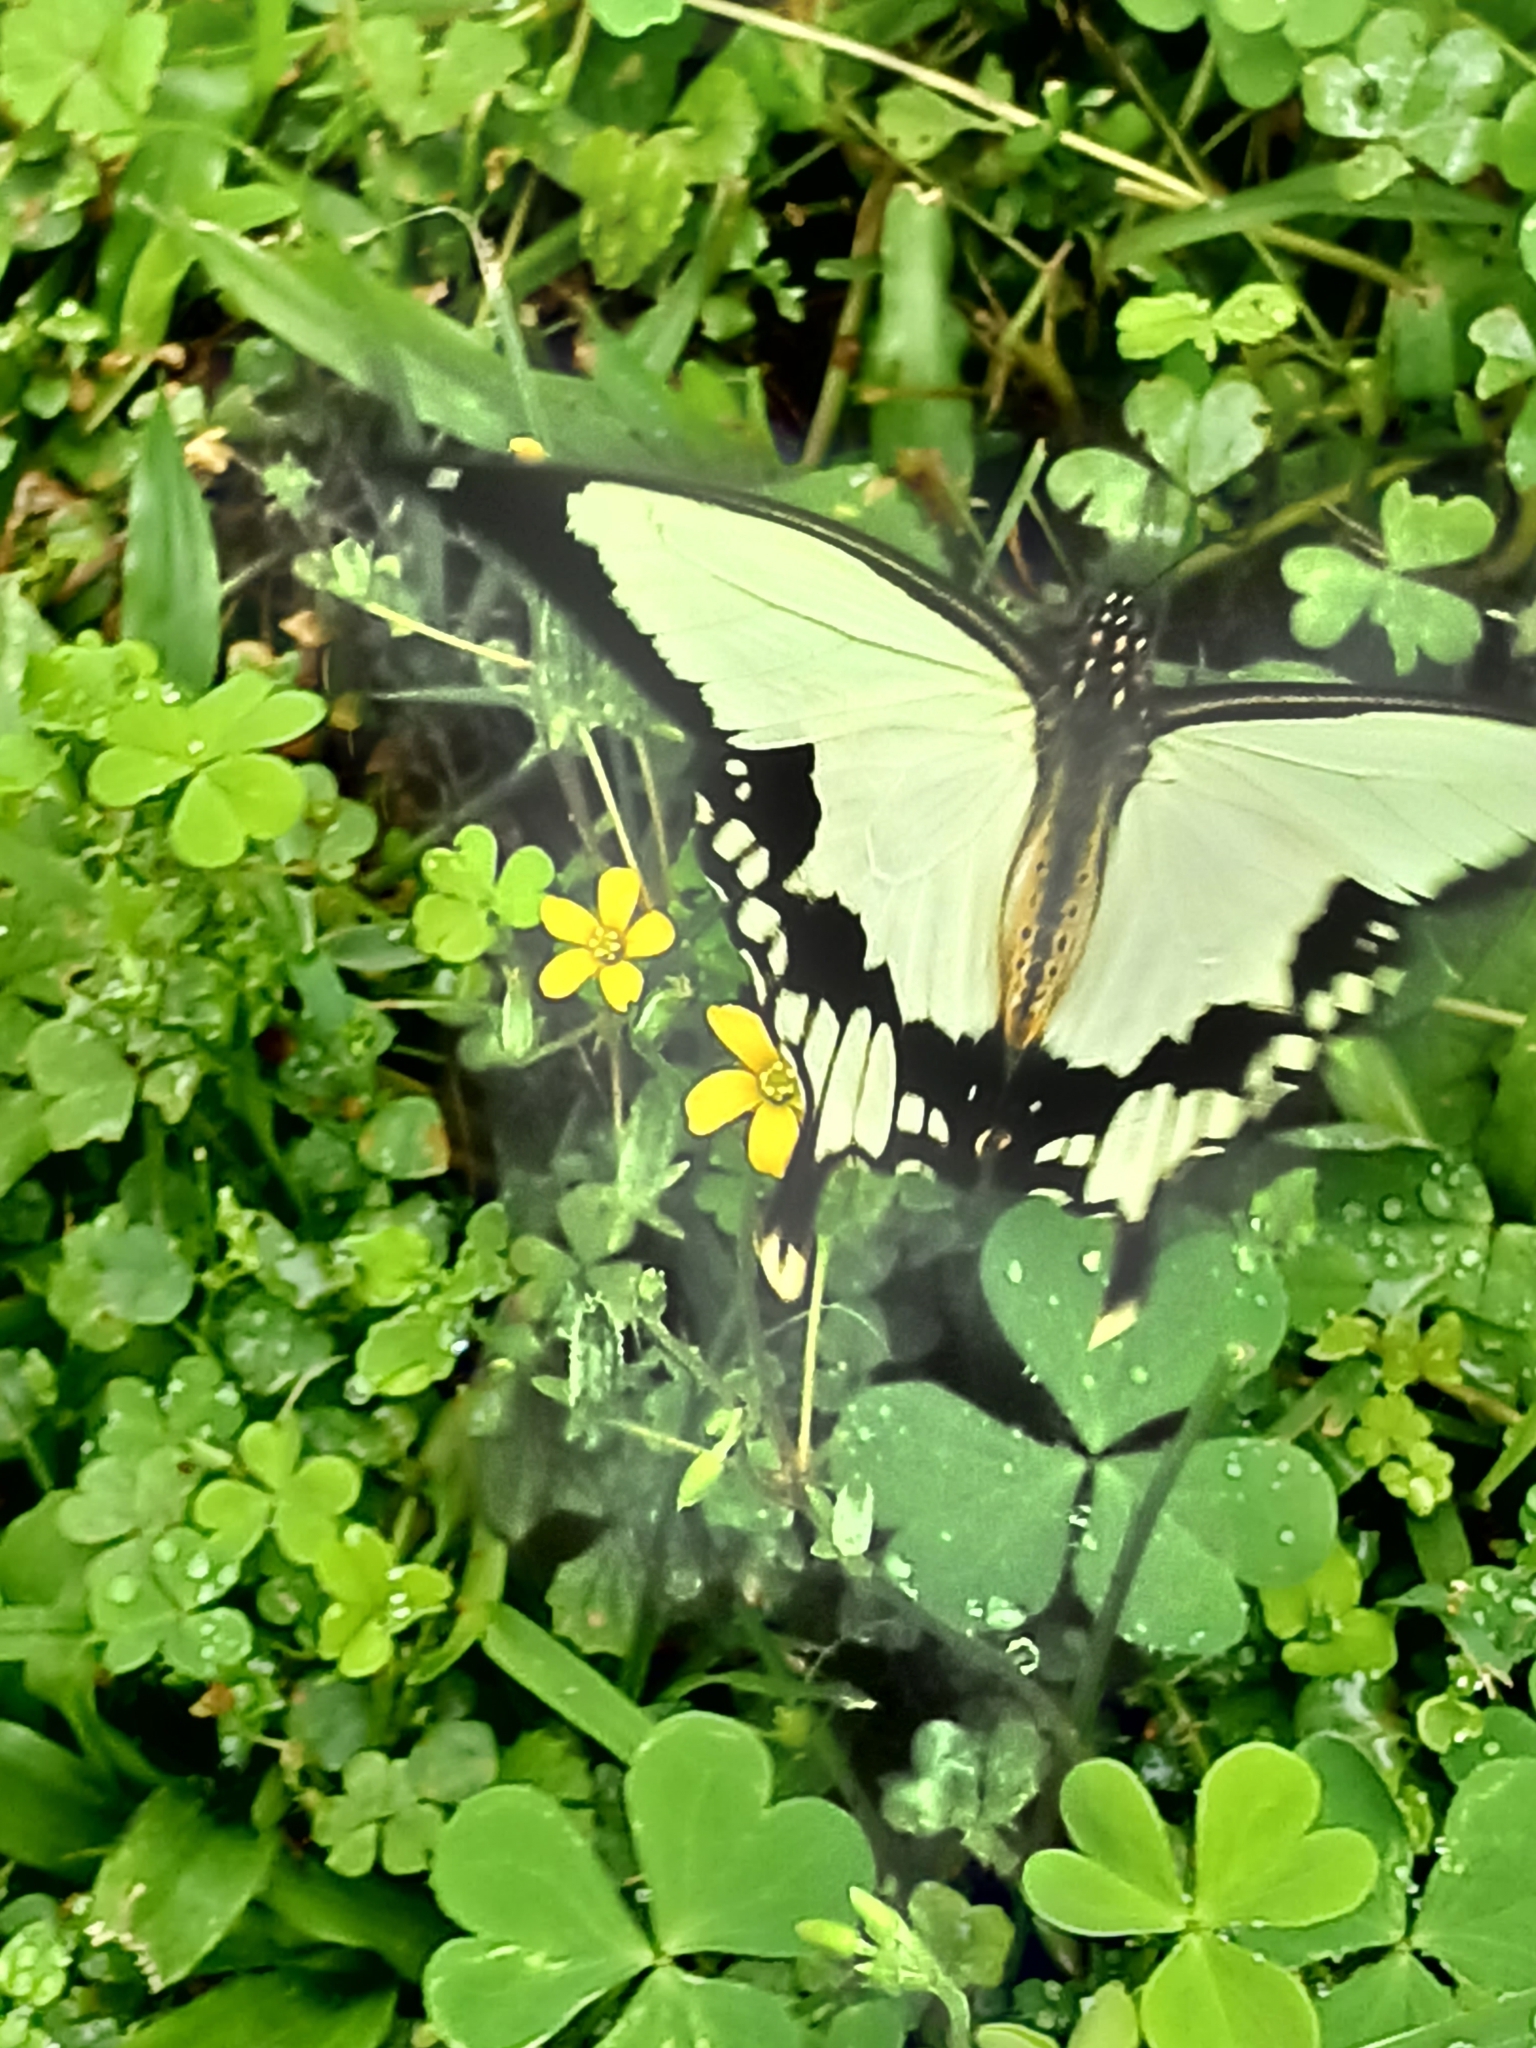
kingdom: Animalia
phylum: Arthropoda
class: Insecta
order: Lepidoptera
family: Papilionidae
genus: Papilio
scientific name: Papilio dardanus
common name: Flying handkerchief
